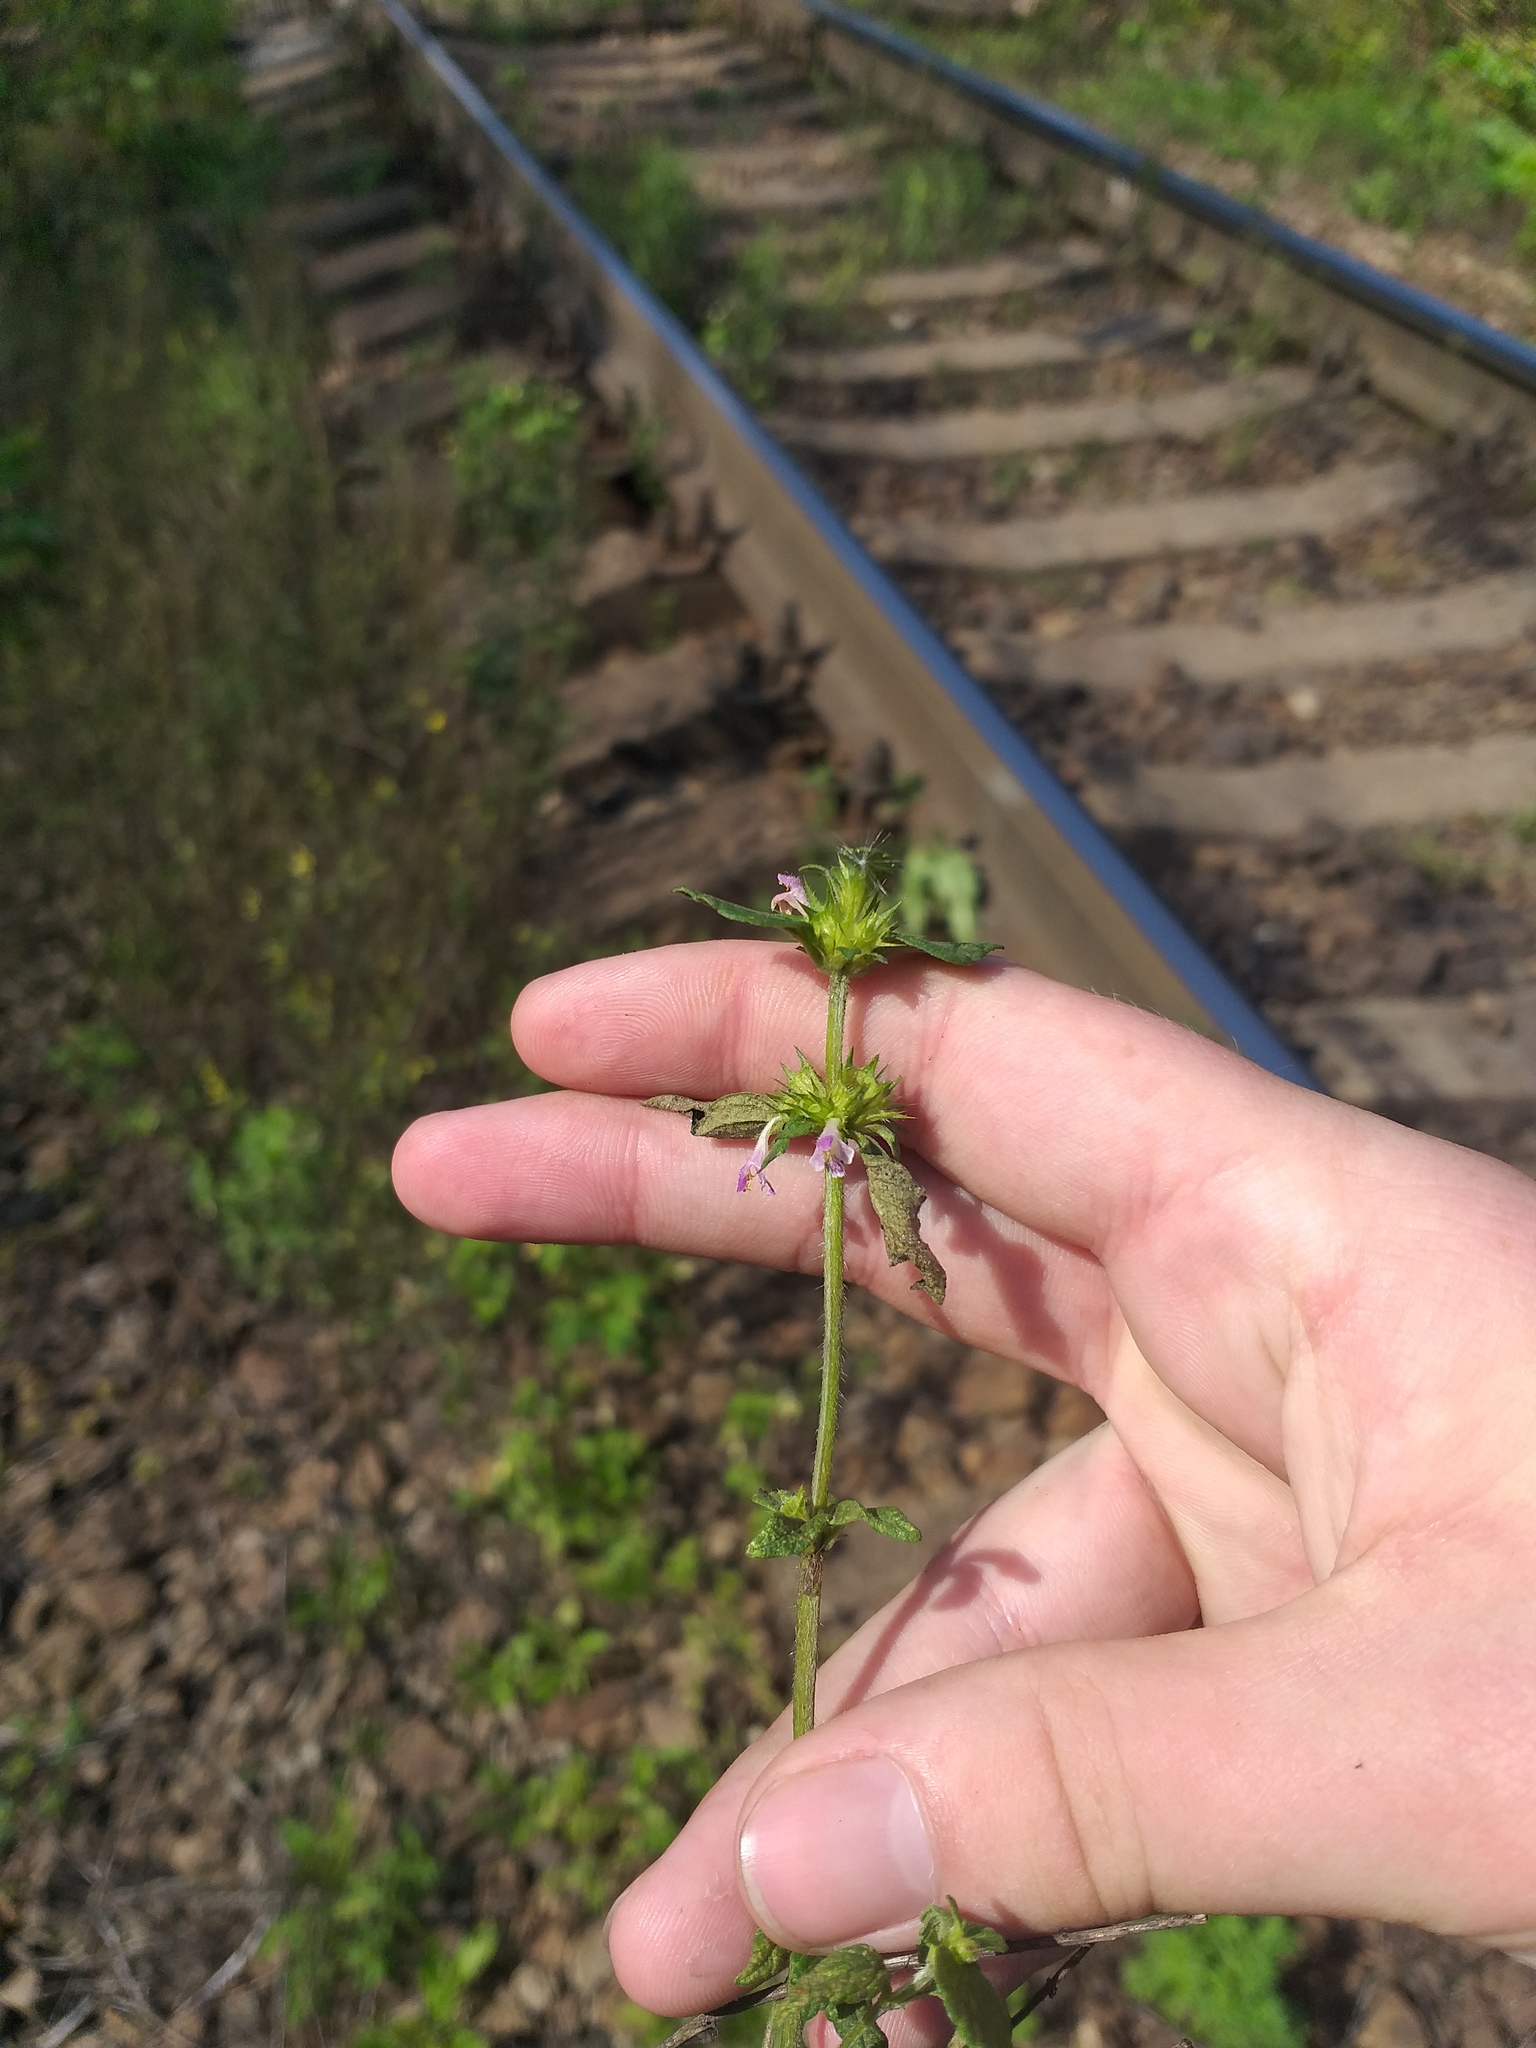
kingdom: Plantae
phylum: Tracheophyta
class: Magnoliopsida
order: Lamiales
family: Lamiaceae
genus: Galeopsis
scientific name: Galeopsis bifida
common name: Bifid hemp-nettle
